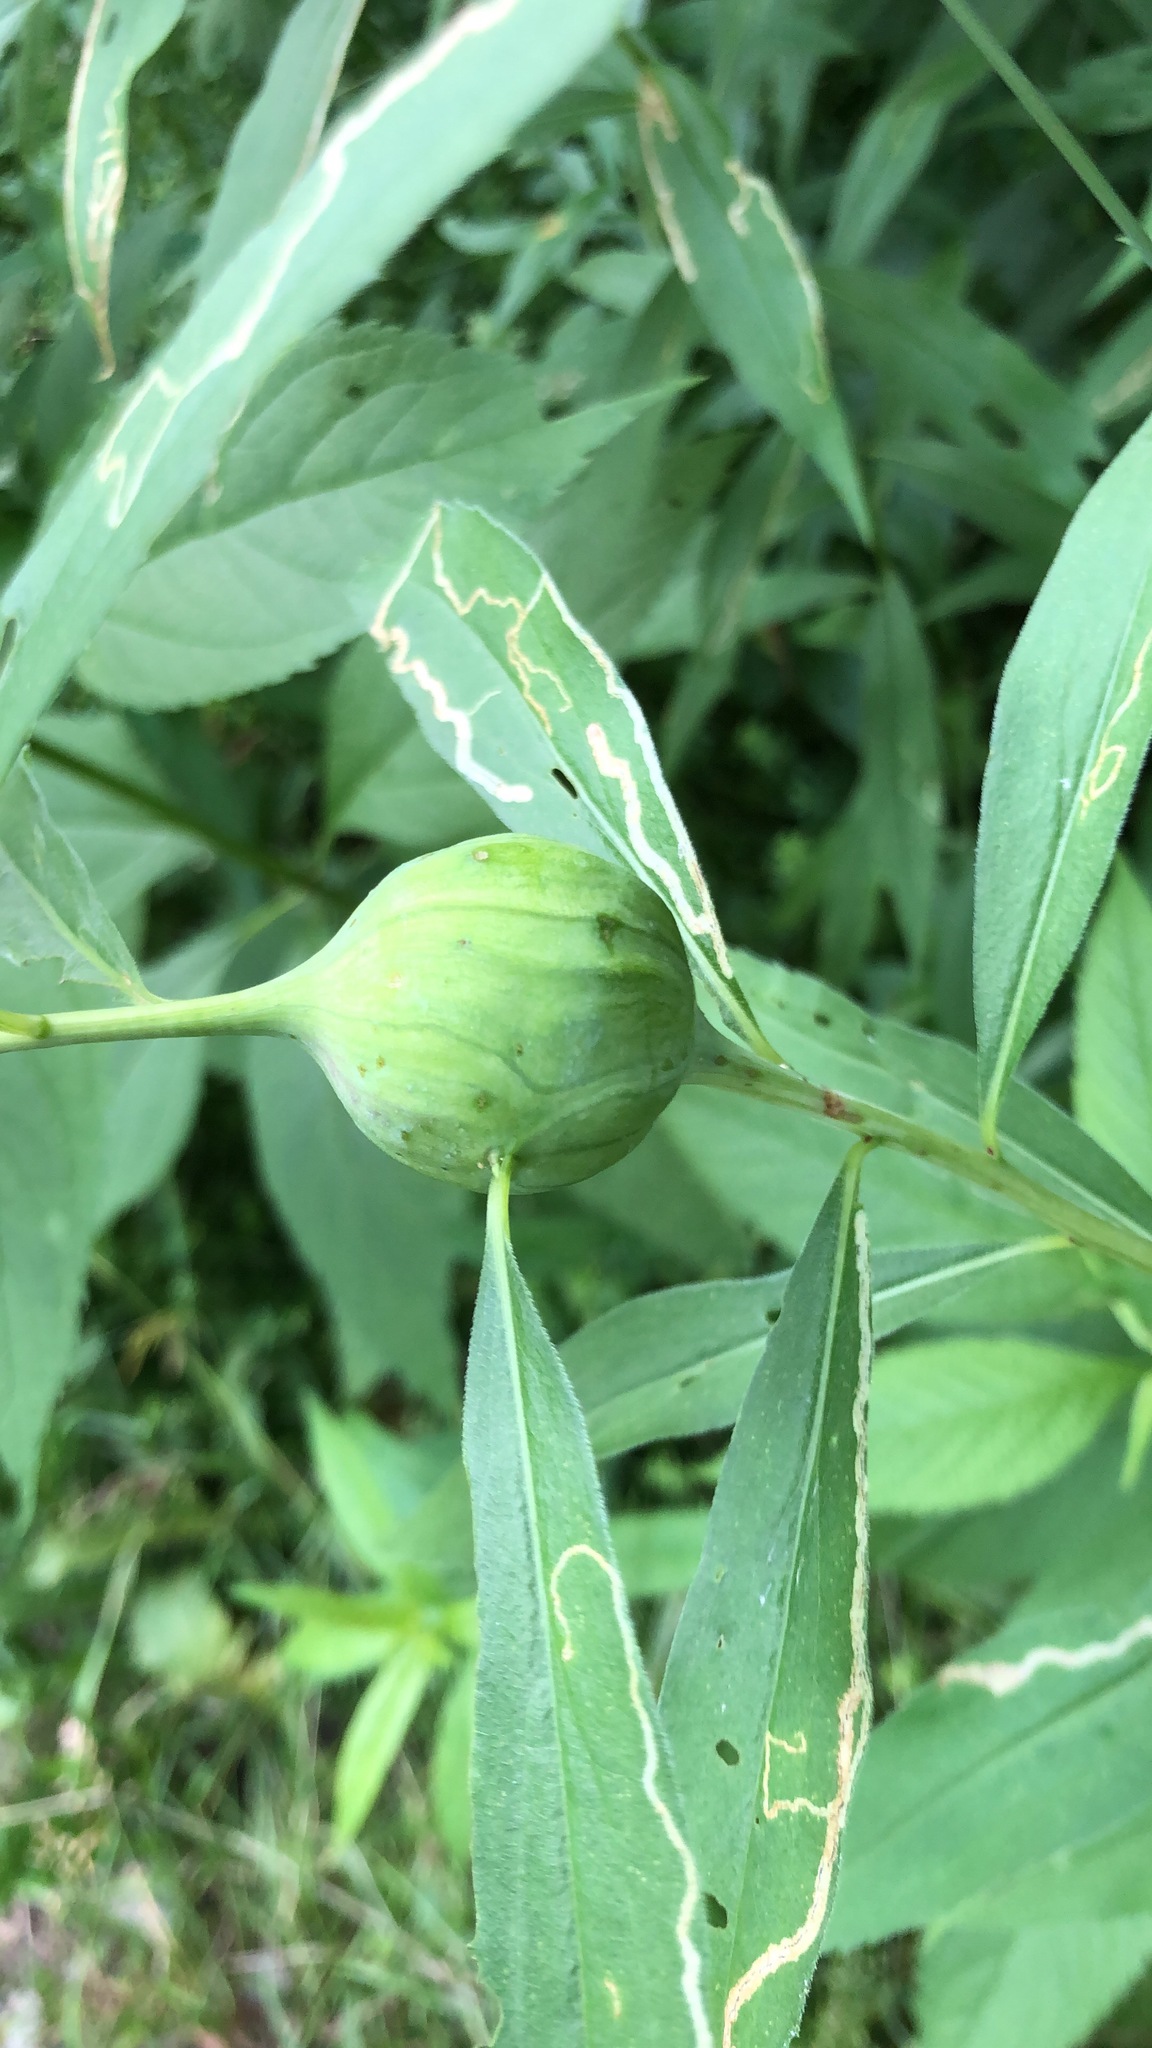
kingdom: Animalia
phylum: Arthropoda
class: Insecta
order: Diptera
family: Tephritidae
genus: Eurosta
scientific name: Eurosta solidaginis
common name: Goldenrod gall fly
